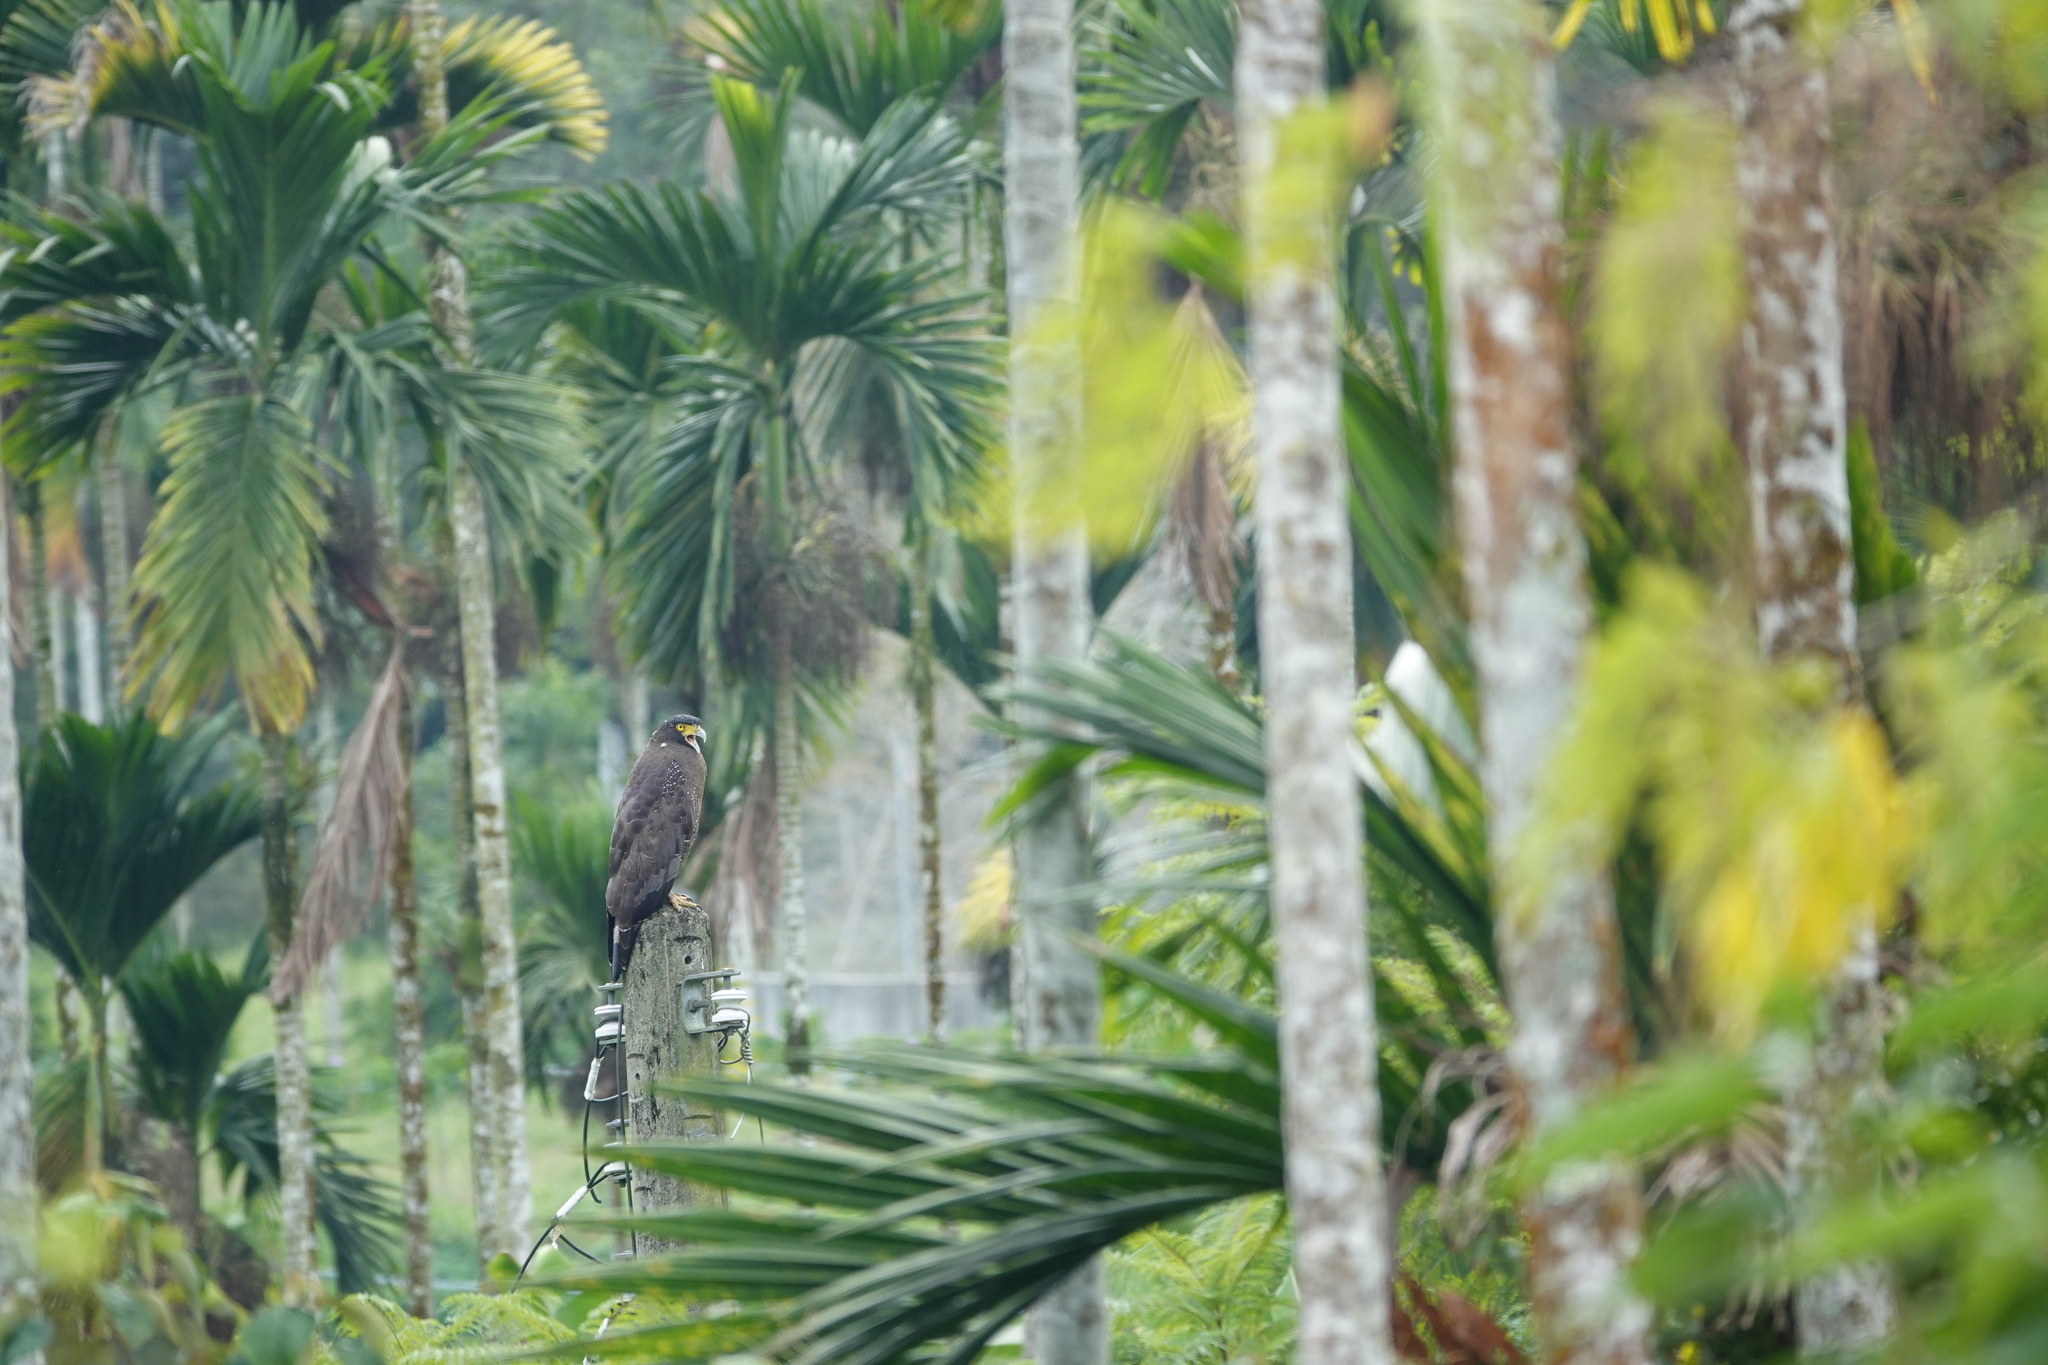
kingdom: Animalia
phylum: Chordata
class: Aves
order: Accipitriformes
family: Accipitridae
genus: Spilornis
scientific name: Spilornis cheela
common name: Crested serpent eagle
